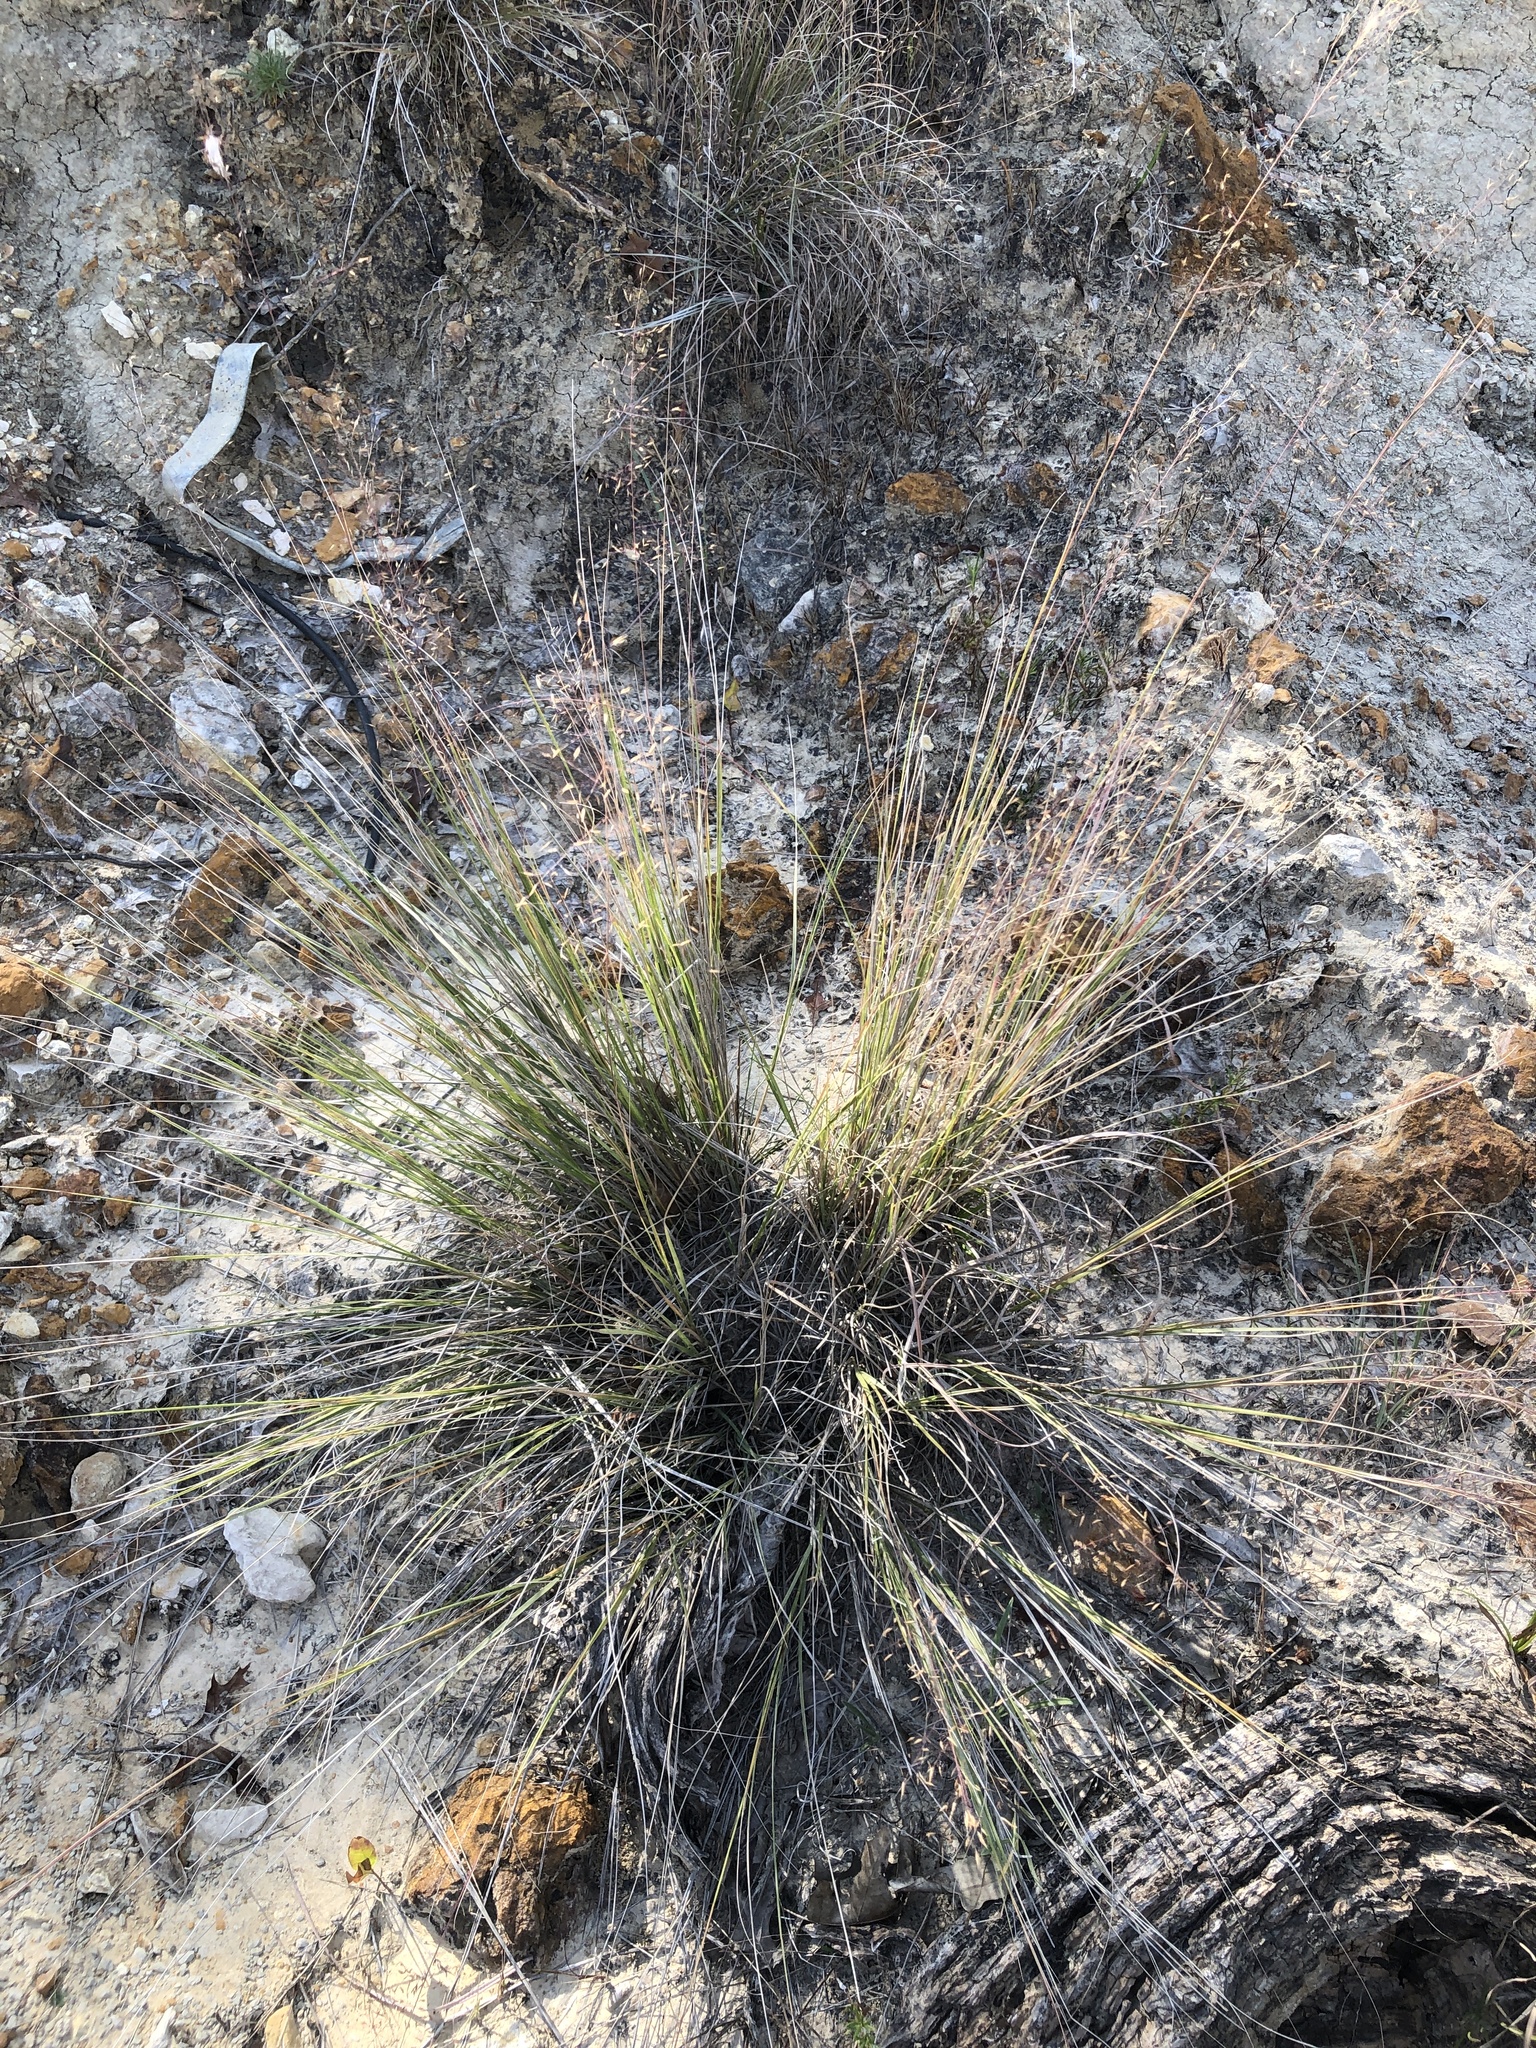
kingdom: Plantae
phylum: Tracheophyta
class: Liliopsida
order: Poales
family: Poaceae
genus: Muhlenbergia
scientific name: Muhlenbergia reverchonii
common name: Seep muhly
